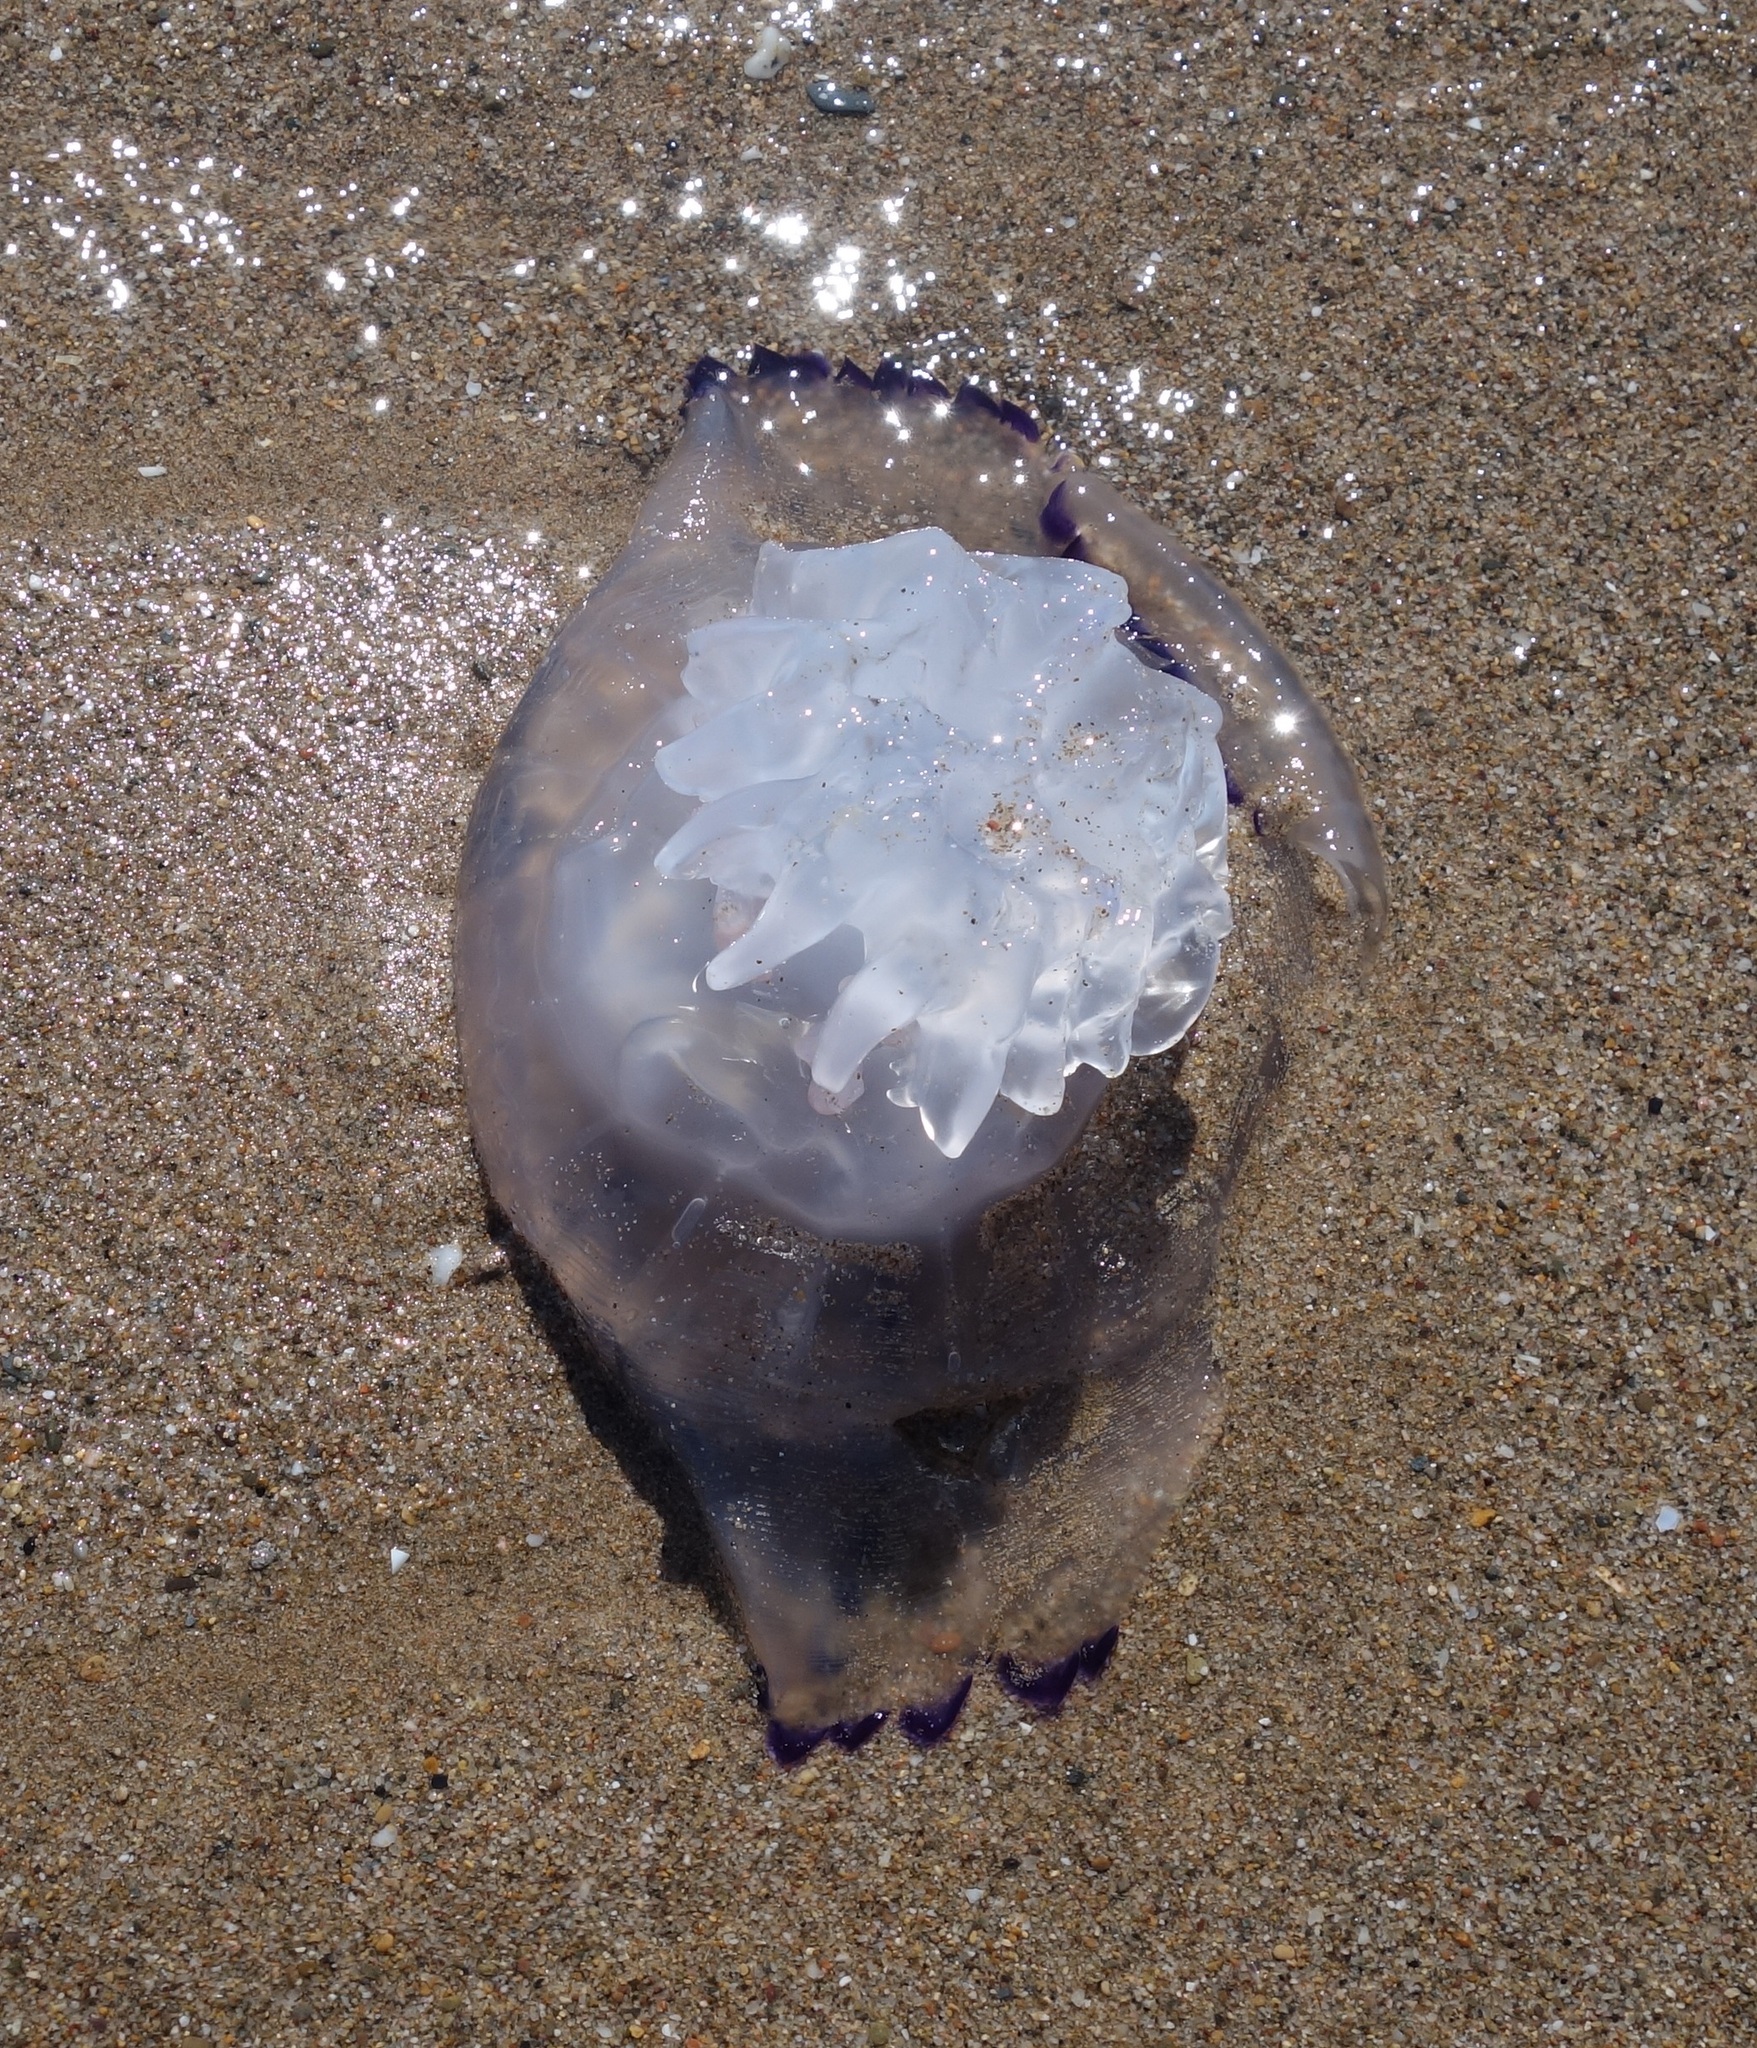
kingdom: Animalia
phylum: Cnidaria
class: Scyphozoa
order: Rhizostomeae
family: Rhizostomatidae
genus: Rhizostoma
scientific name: Rhizostoma pulmo
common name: Barrel jellyfish
